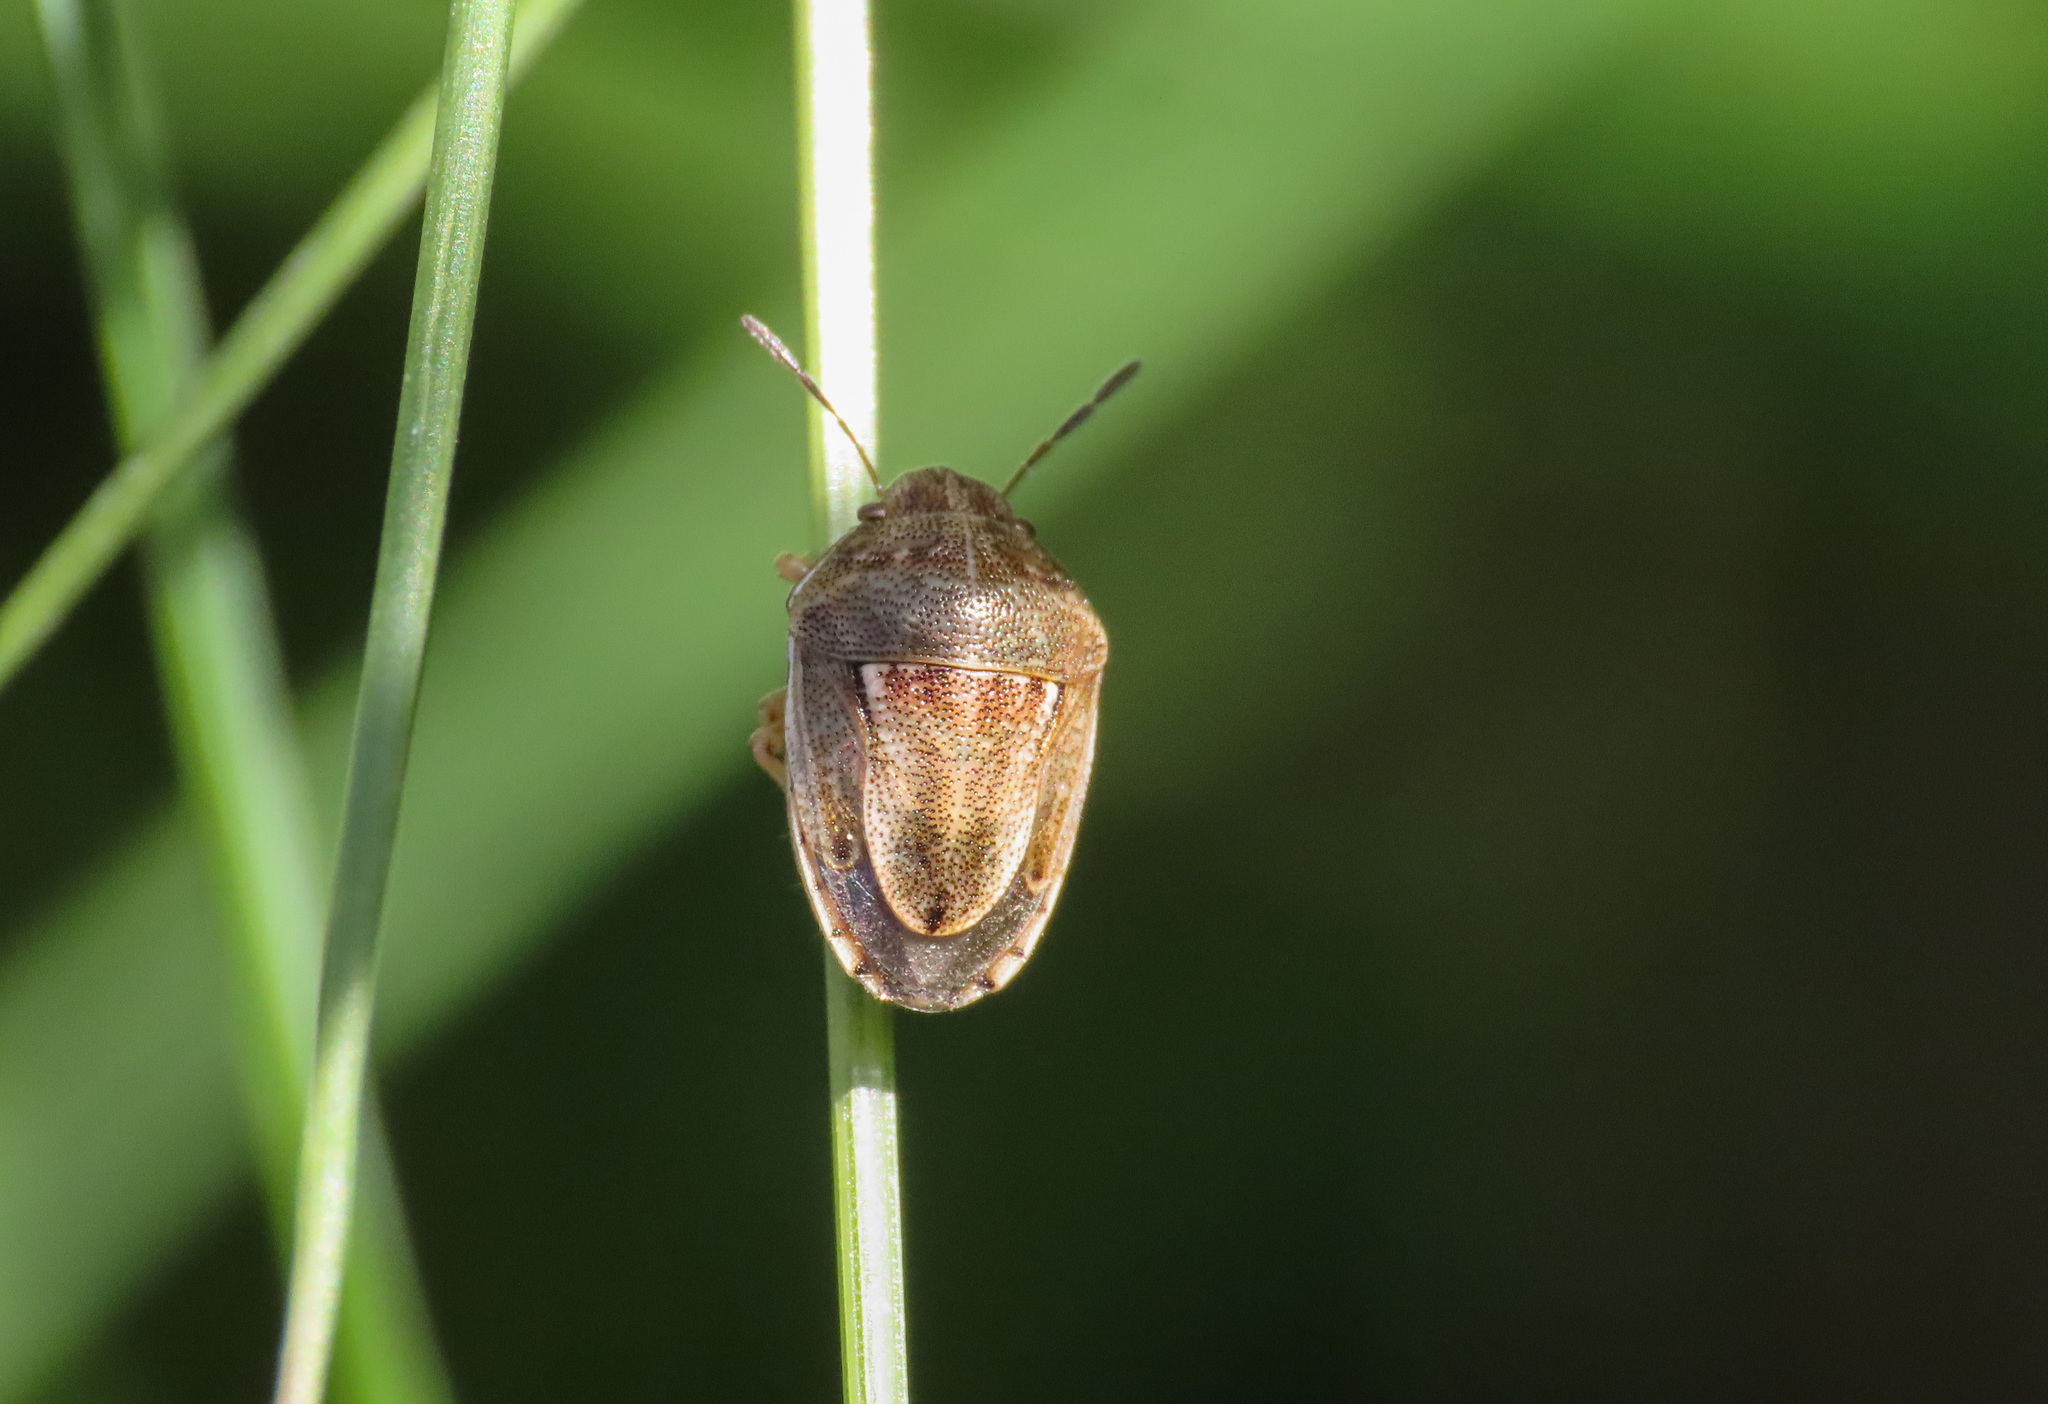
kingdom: Animalia
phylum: Arthropoda
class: Insecta
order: Hemiptera
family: Pentatomidae
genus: Neottiglossa
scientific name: Neottiglossa leporina
